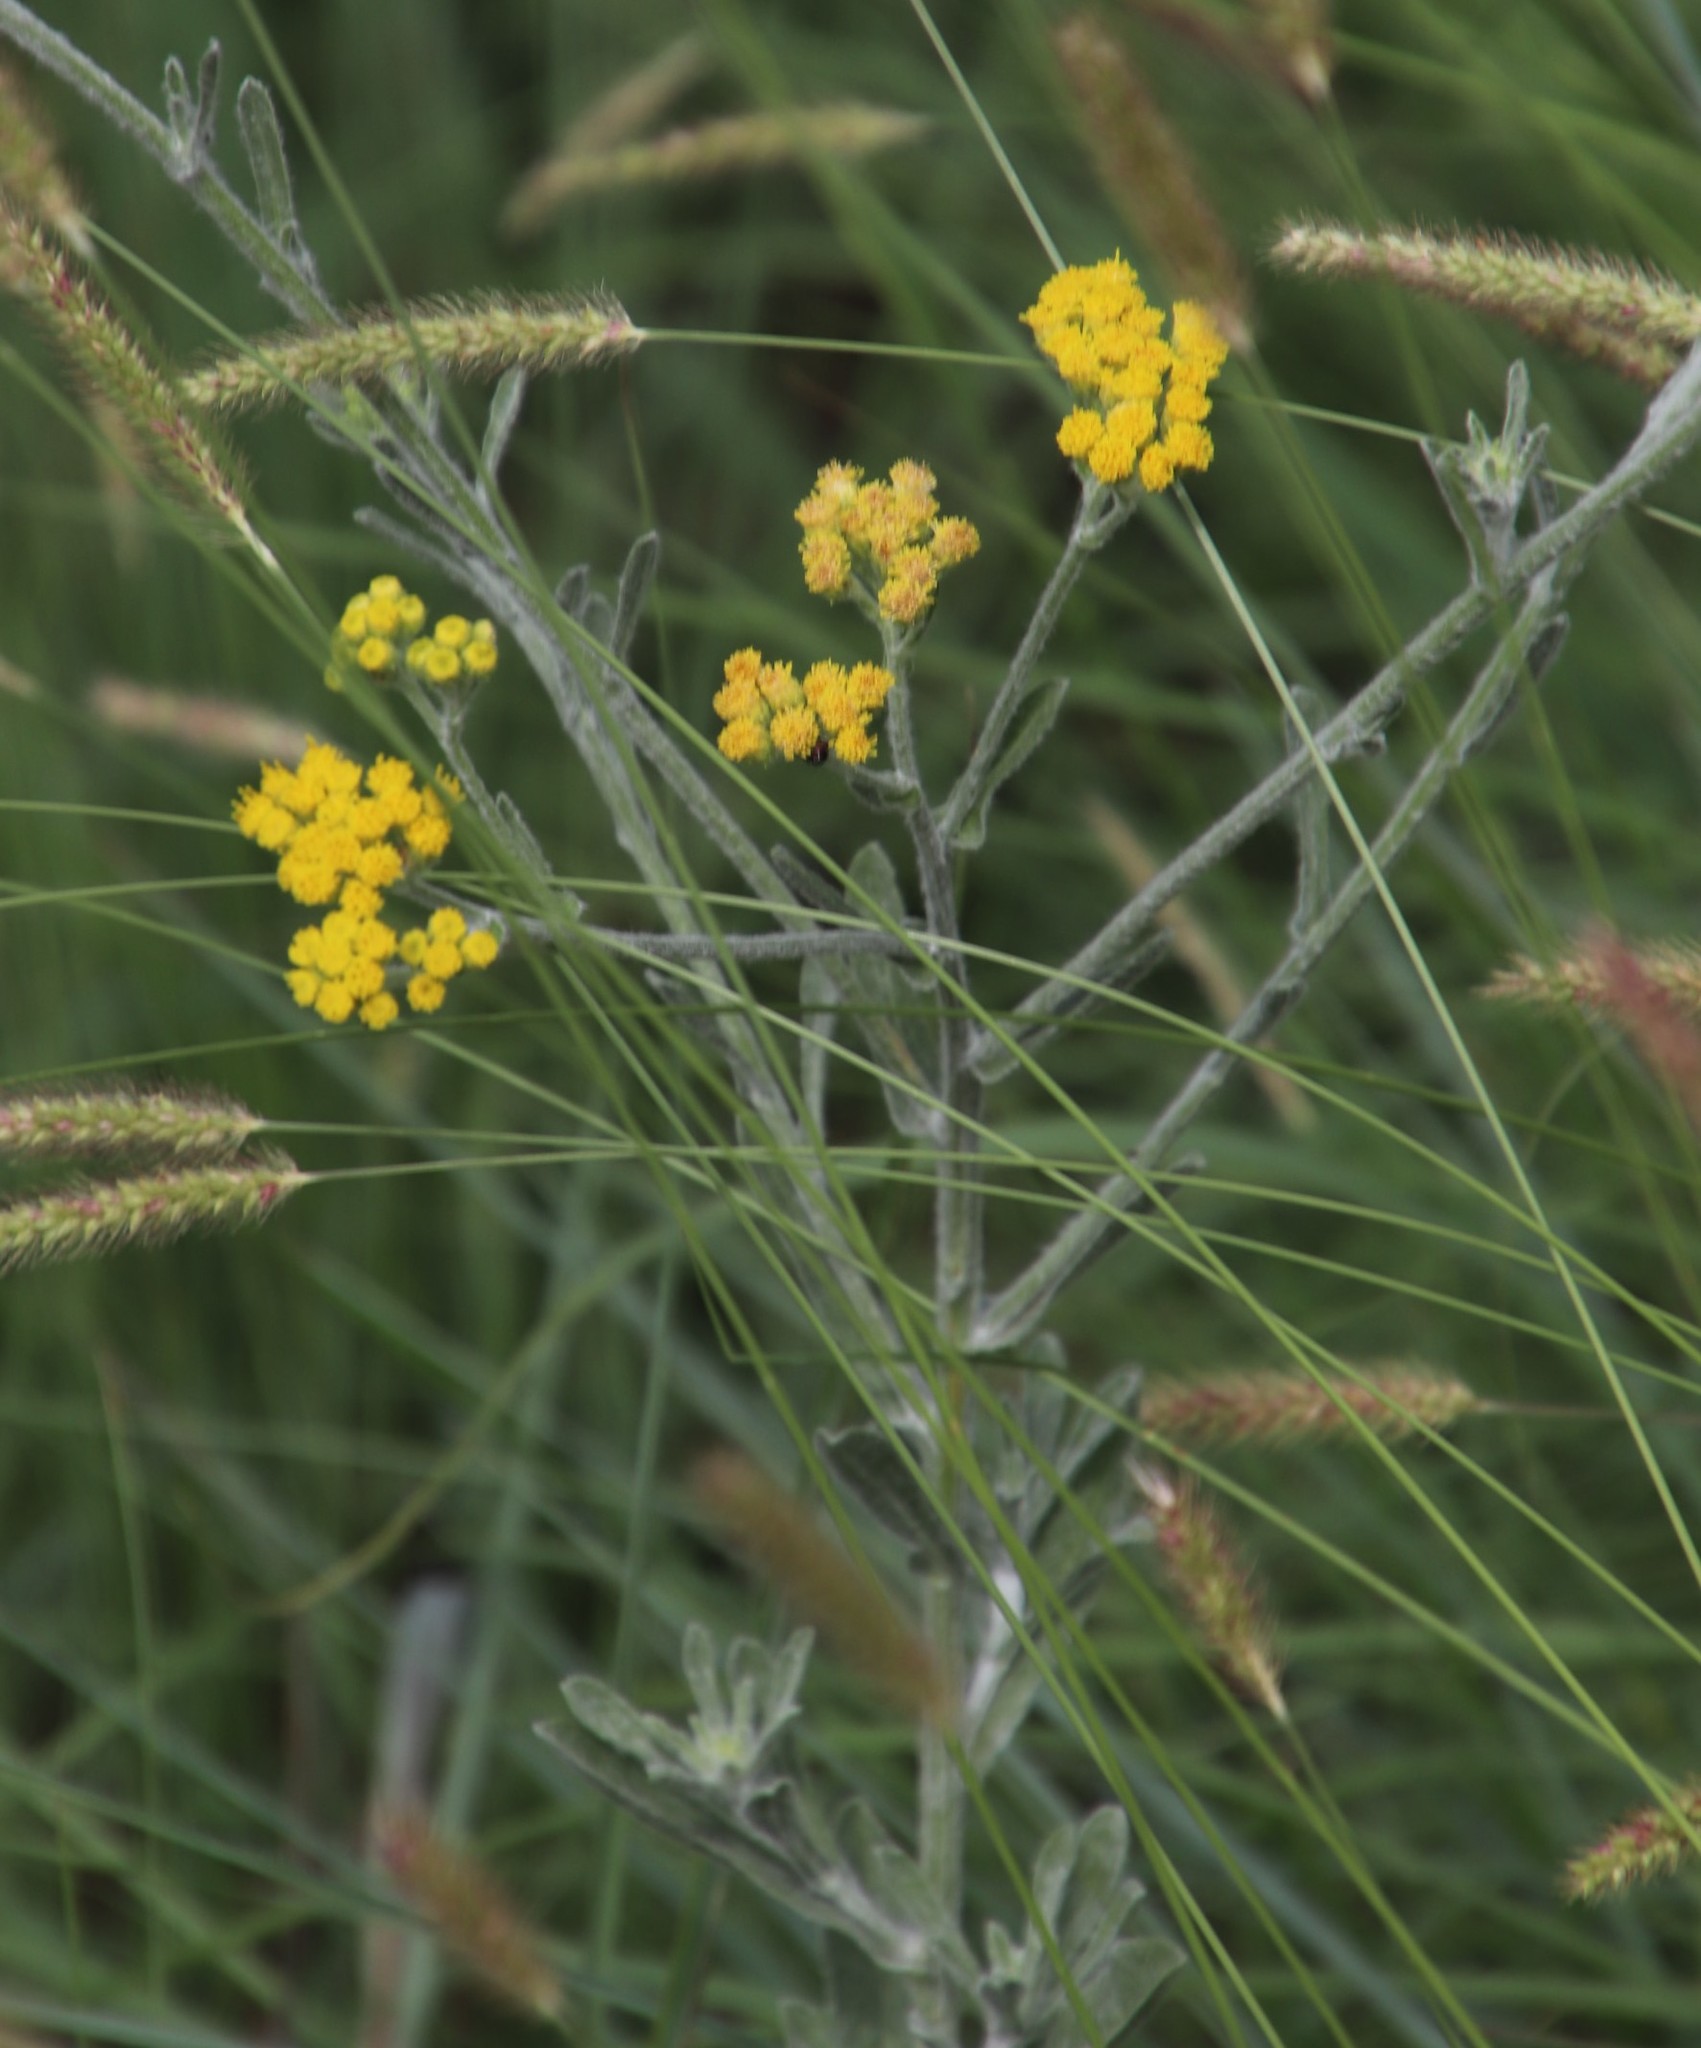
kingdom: Plantae
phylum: Tracheophyta
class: Magnoliopsida
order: Asterales
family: Asteraceae
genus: Nidorella
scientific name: Nidorella hottentotica
